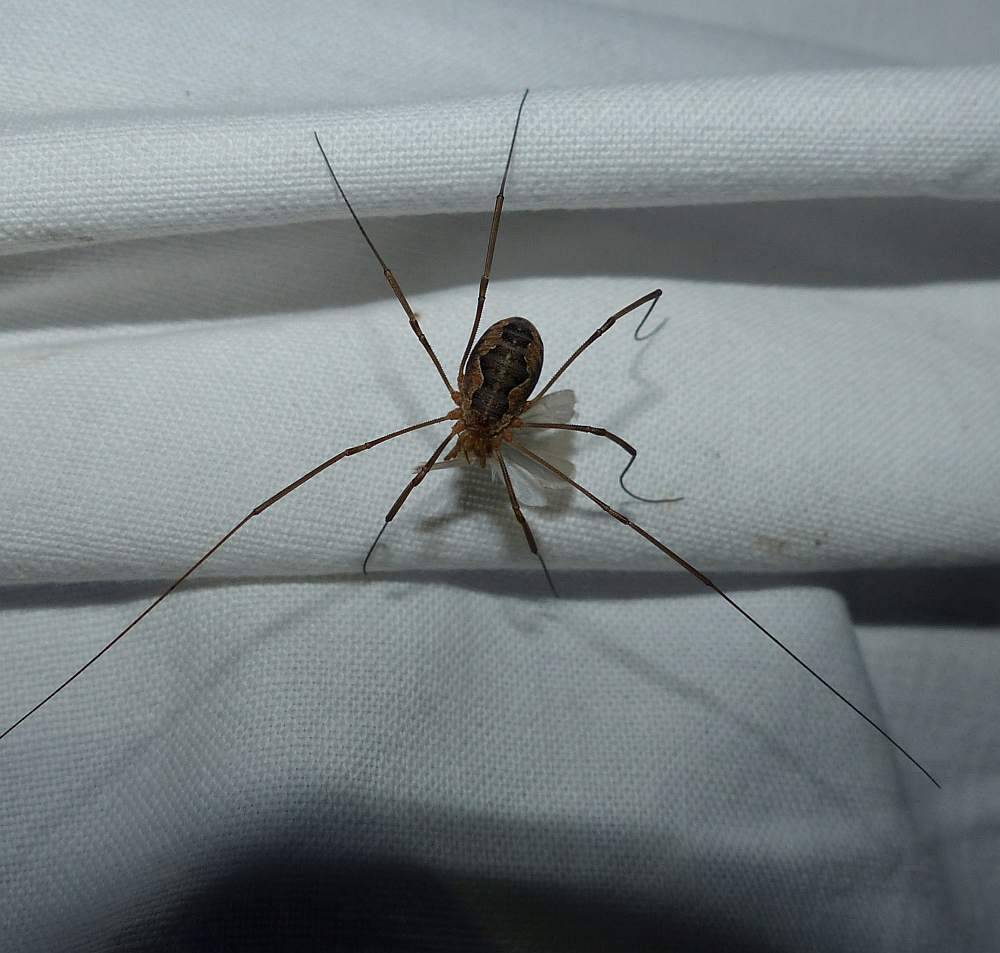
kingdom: Animalia
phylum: Arthropoda
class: Arachnida
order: Opiliones
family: Phalangiidae
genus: Phalangium
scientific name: Phalangium opilio
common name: Daddy longleg
